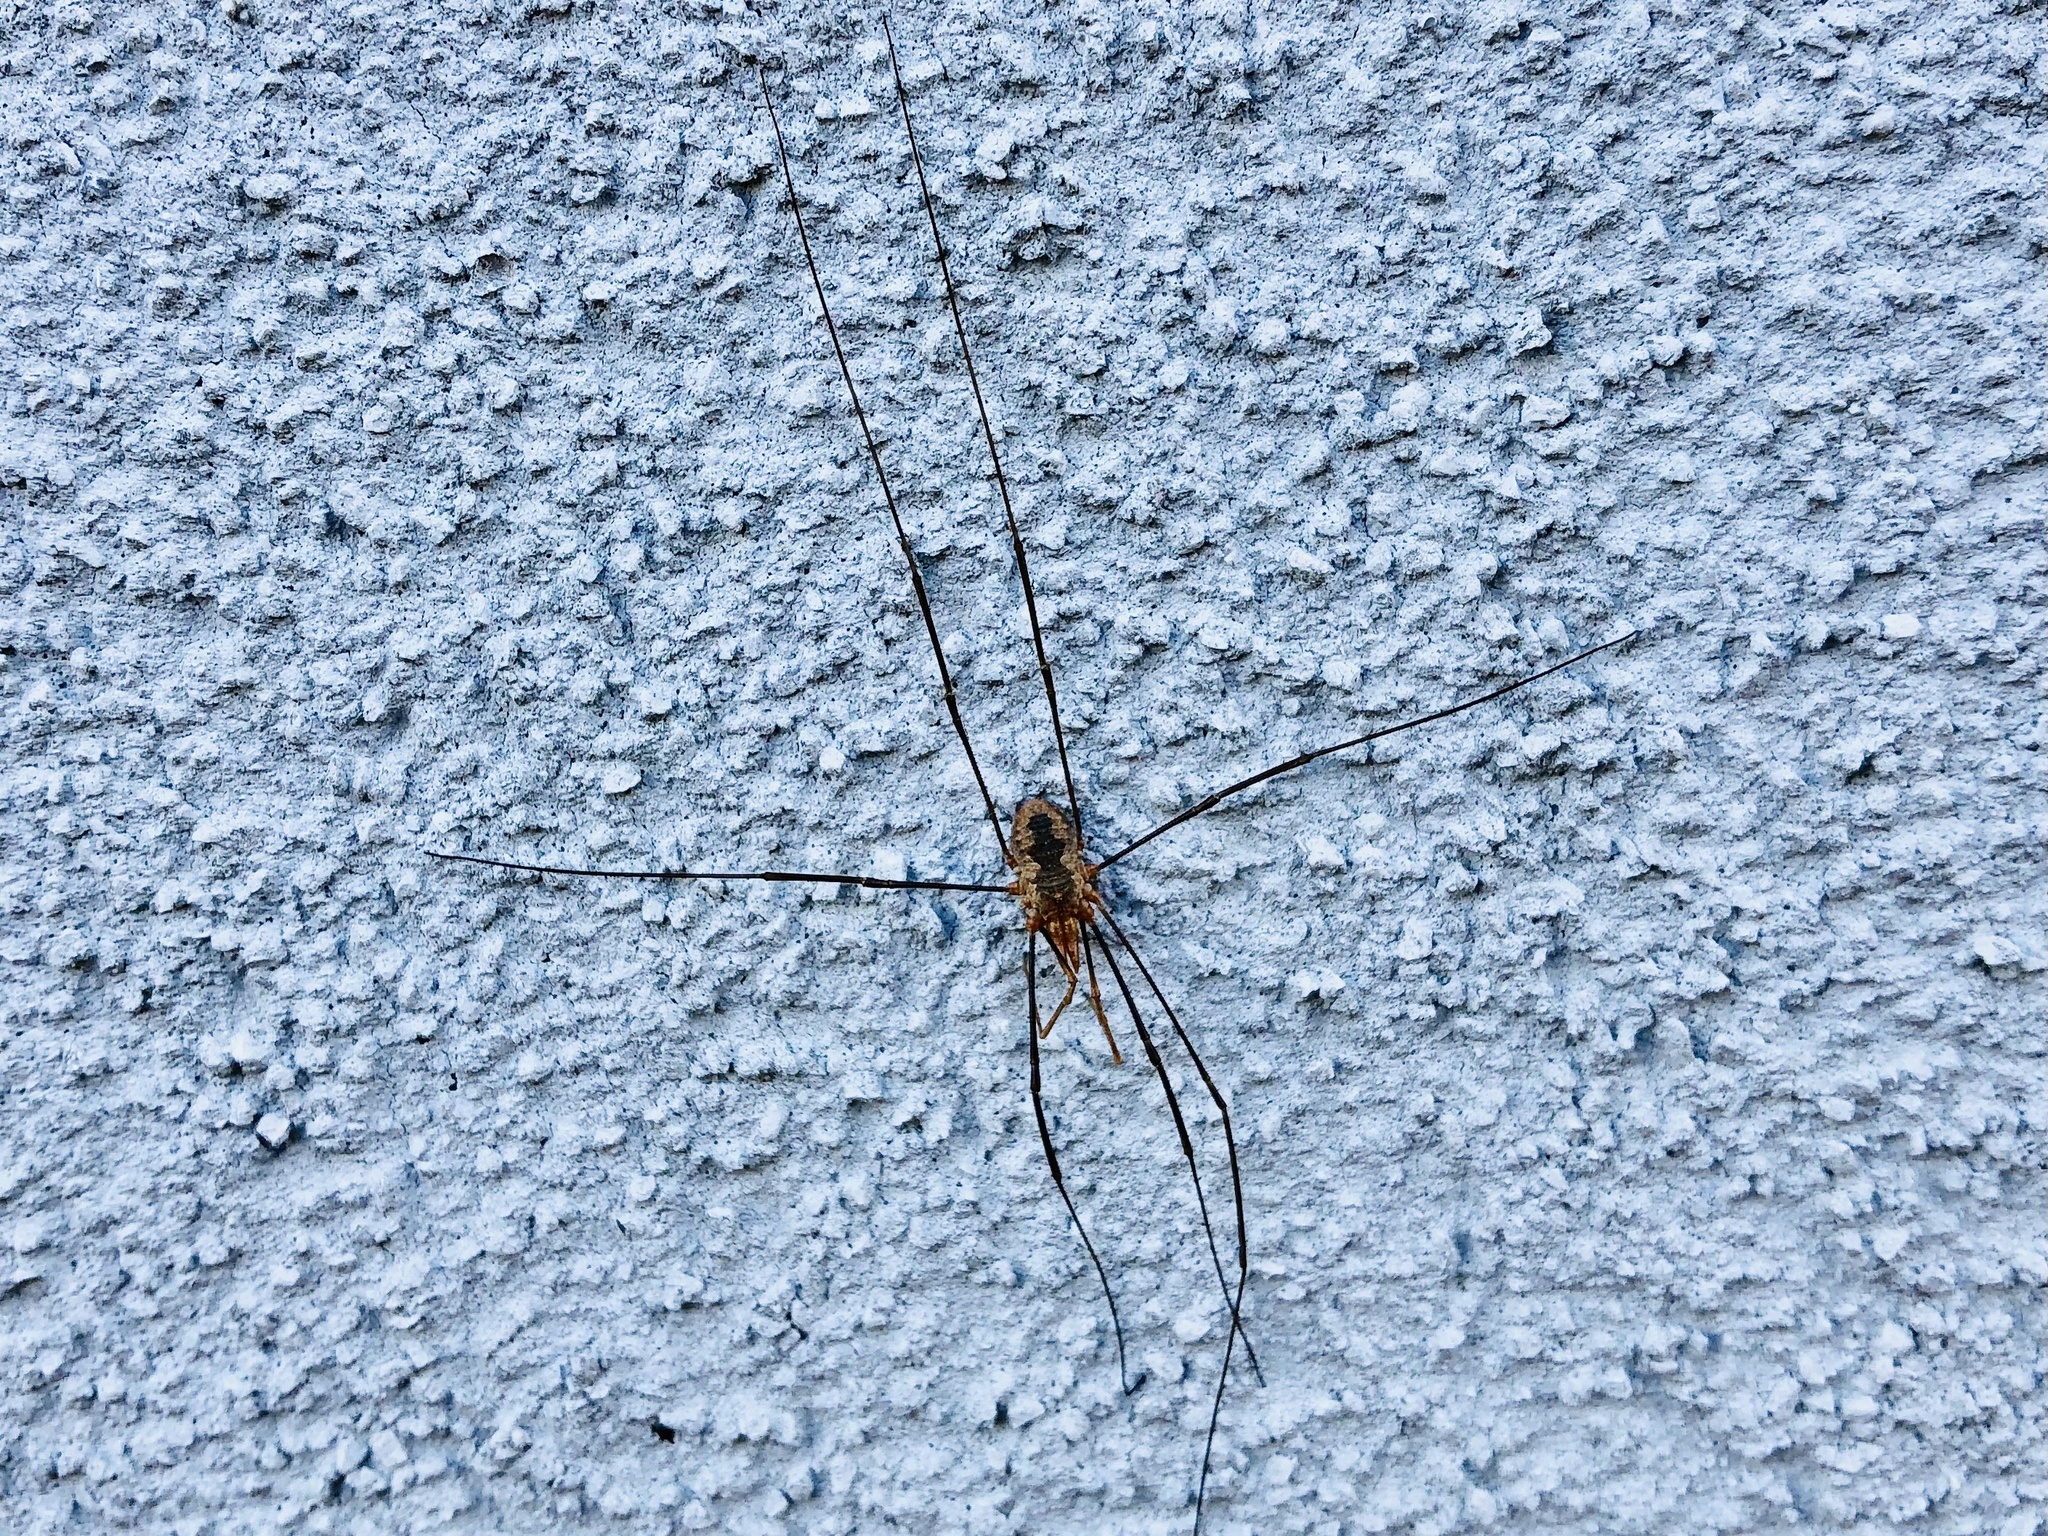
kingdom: Animalia
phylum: Arthropoda
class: Arachnida
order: Opiliones
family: Phalangiidae
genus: Phalangium
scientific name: Phalangium opilio
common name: Daddy longleg
